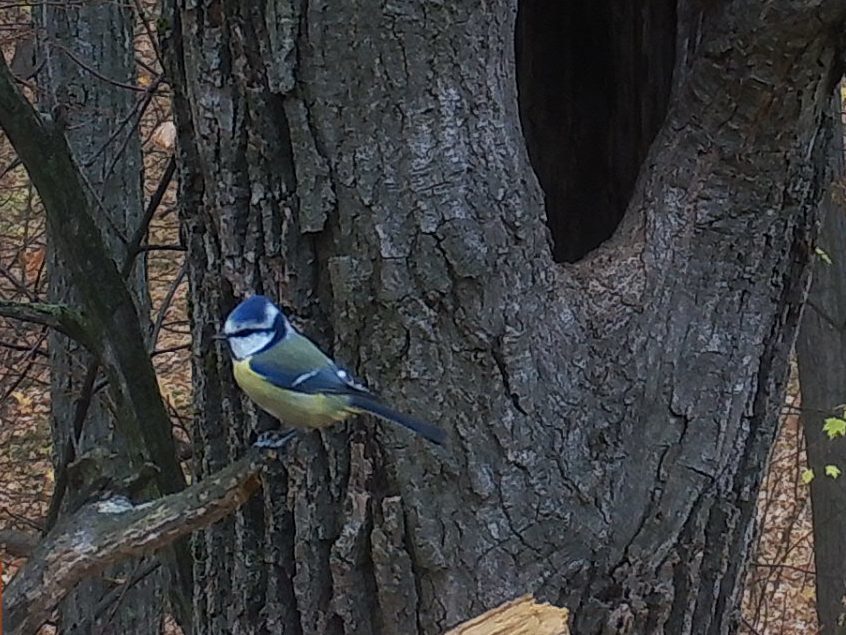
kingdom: Animalia
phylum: Chordata
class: Aves
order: Passeriformes
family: Paridae
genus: Cyanistes
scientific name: Cyanistes caeruleus
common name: Eurasian blue tit
